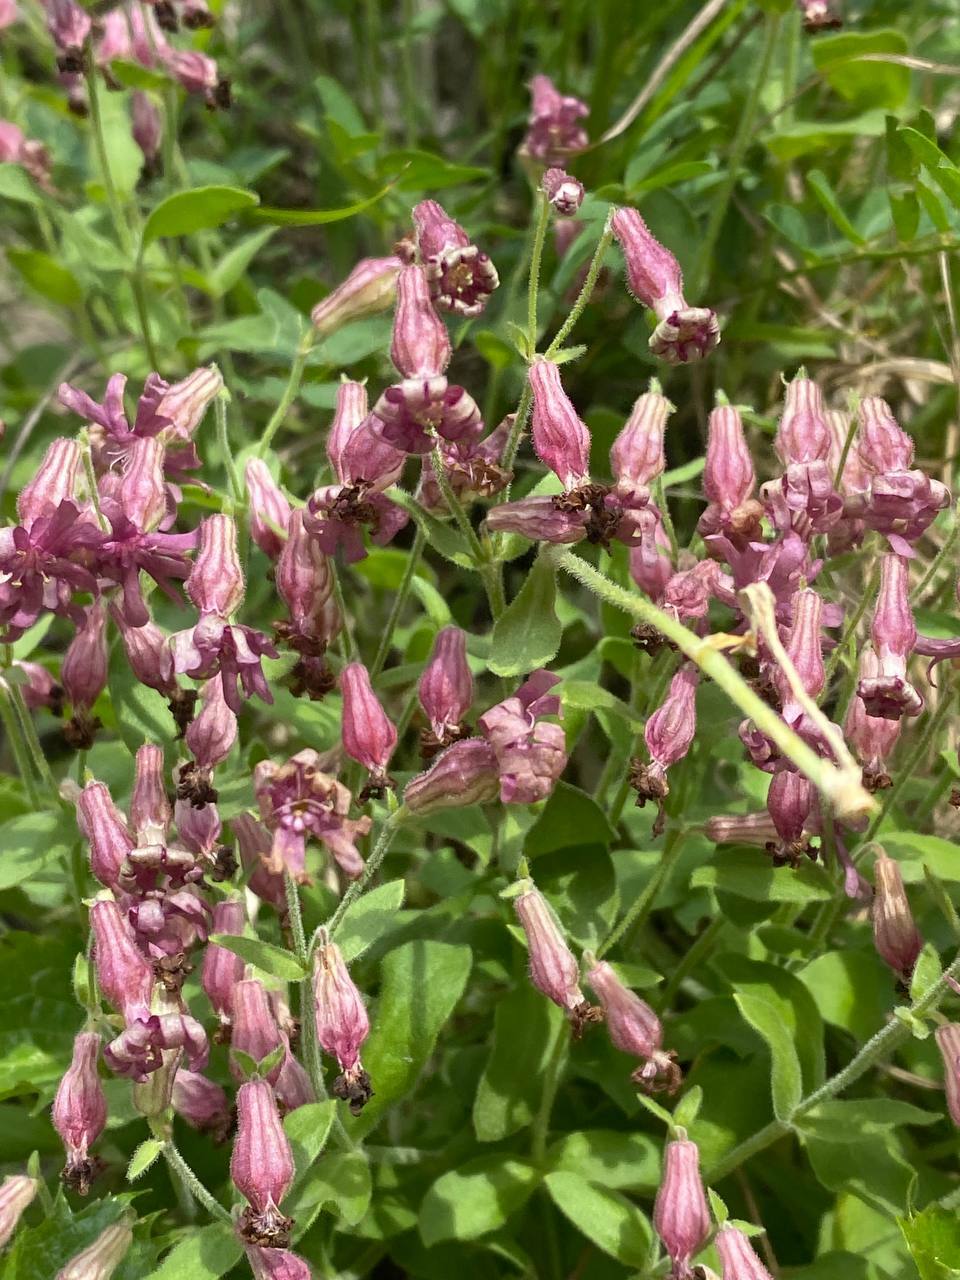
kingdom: Plantae
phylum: Tracheophyta
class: Magnoliopsida
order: Caryophyllales
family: Caryophyllaceae
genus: Silene
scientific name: Silene pygmaea
